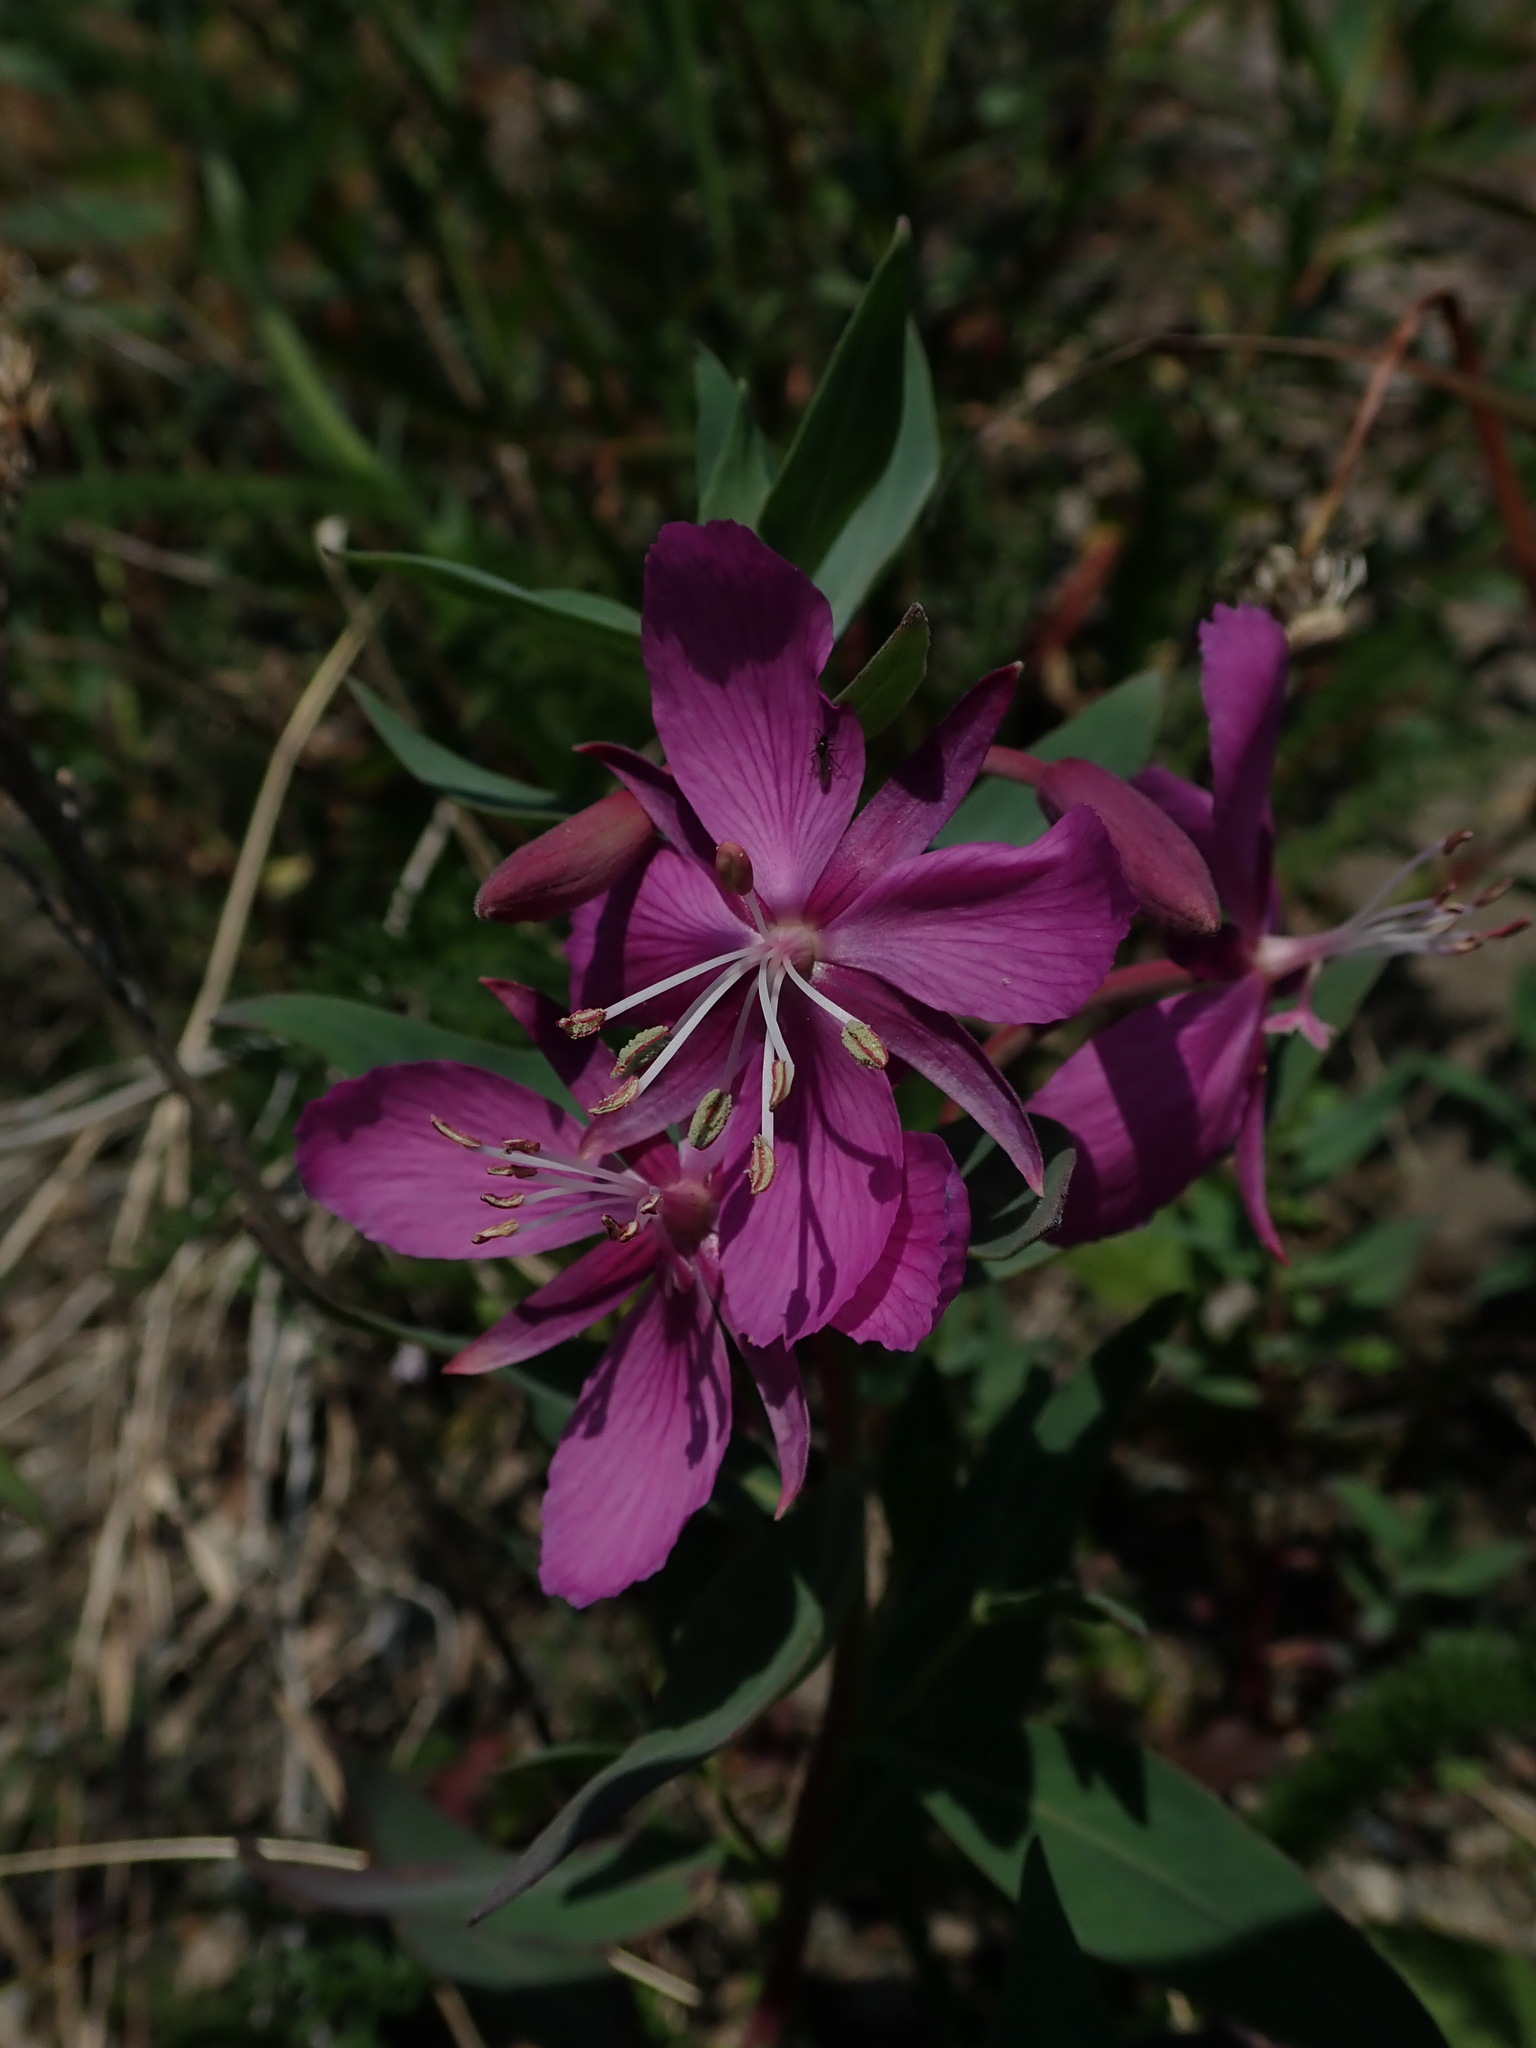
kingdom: Plantae
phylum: Tracheophyta
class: Magnoliopsida
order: Myrtales
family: Onagraceae
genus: Chamaenerion
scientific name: Chamaenerion latifolium
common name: Dwarf fireweed
